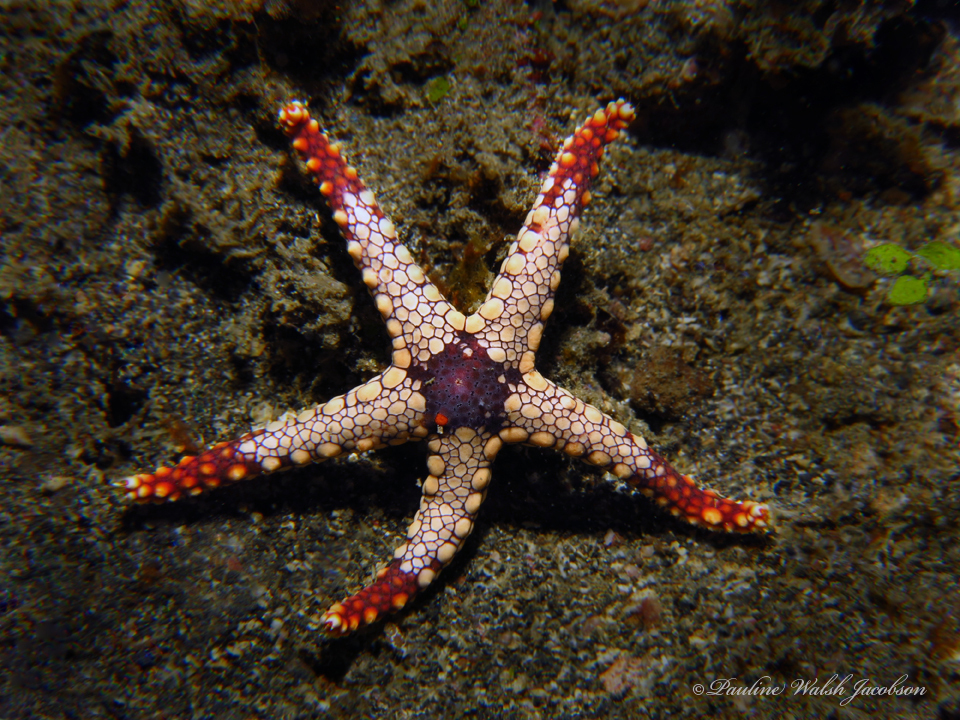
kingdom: Animalia
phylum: Echinodermata
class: Asteroidea
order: Valvatida
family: Goniasteridae
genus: Fromia
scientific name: Fromia monilis
